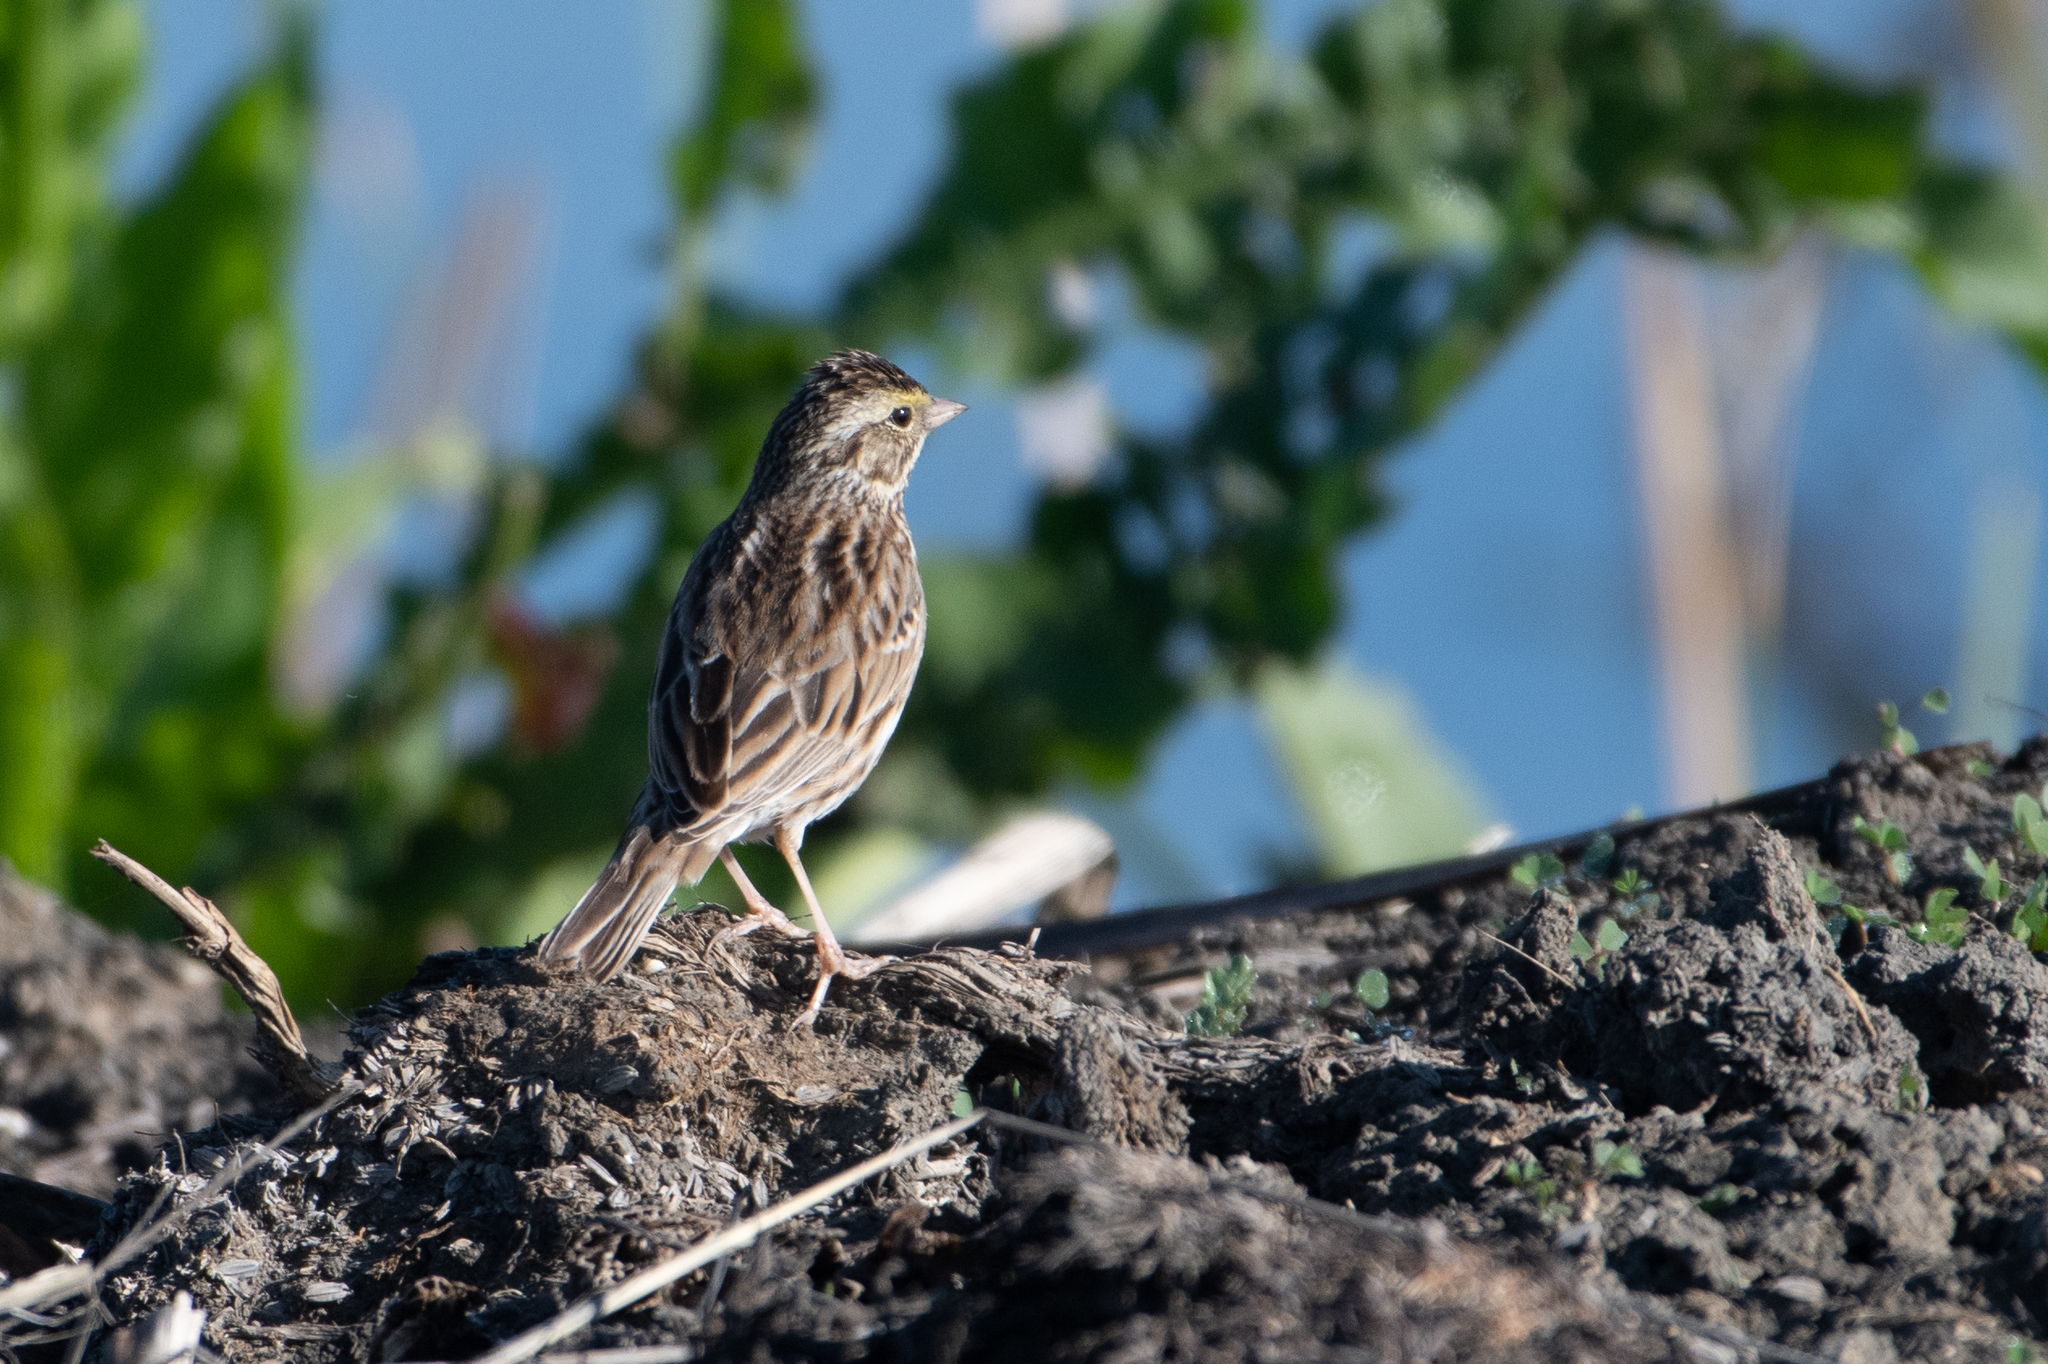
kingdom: Animalia
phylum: Chordata
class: Aves
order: Passeriformes
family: Passerellidae
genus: Passerculus
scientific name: Passerculus sandwichensis
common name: Savannah sparrow
